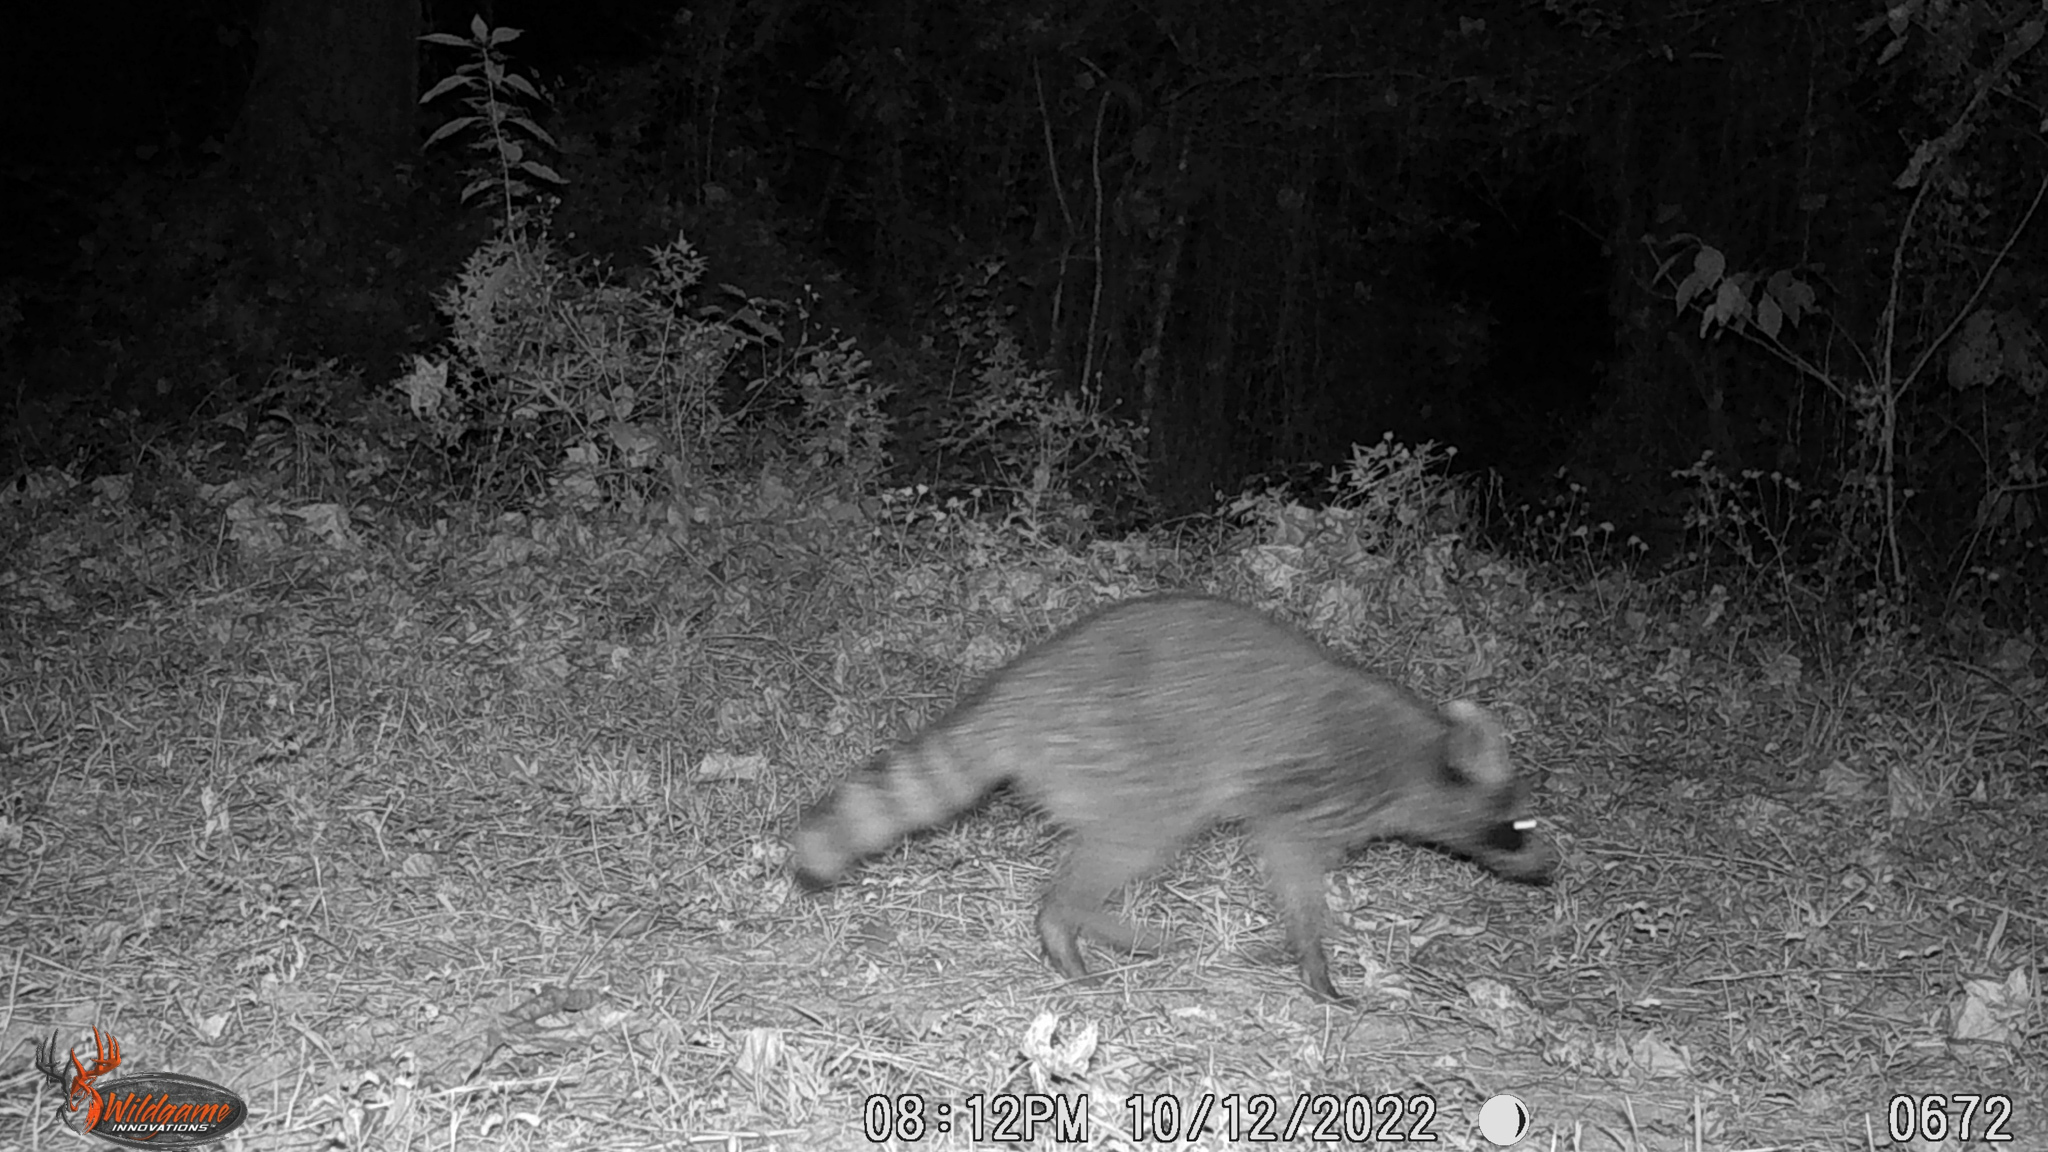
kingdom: Animalia
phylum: Chordata
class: Mammalia
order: Carnivora
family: Procyonidae
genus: Procyon
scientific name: Procyon lotor
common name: Raccoon
